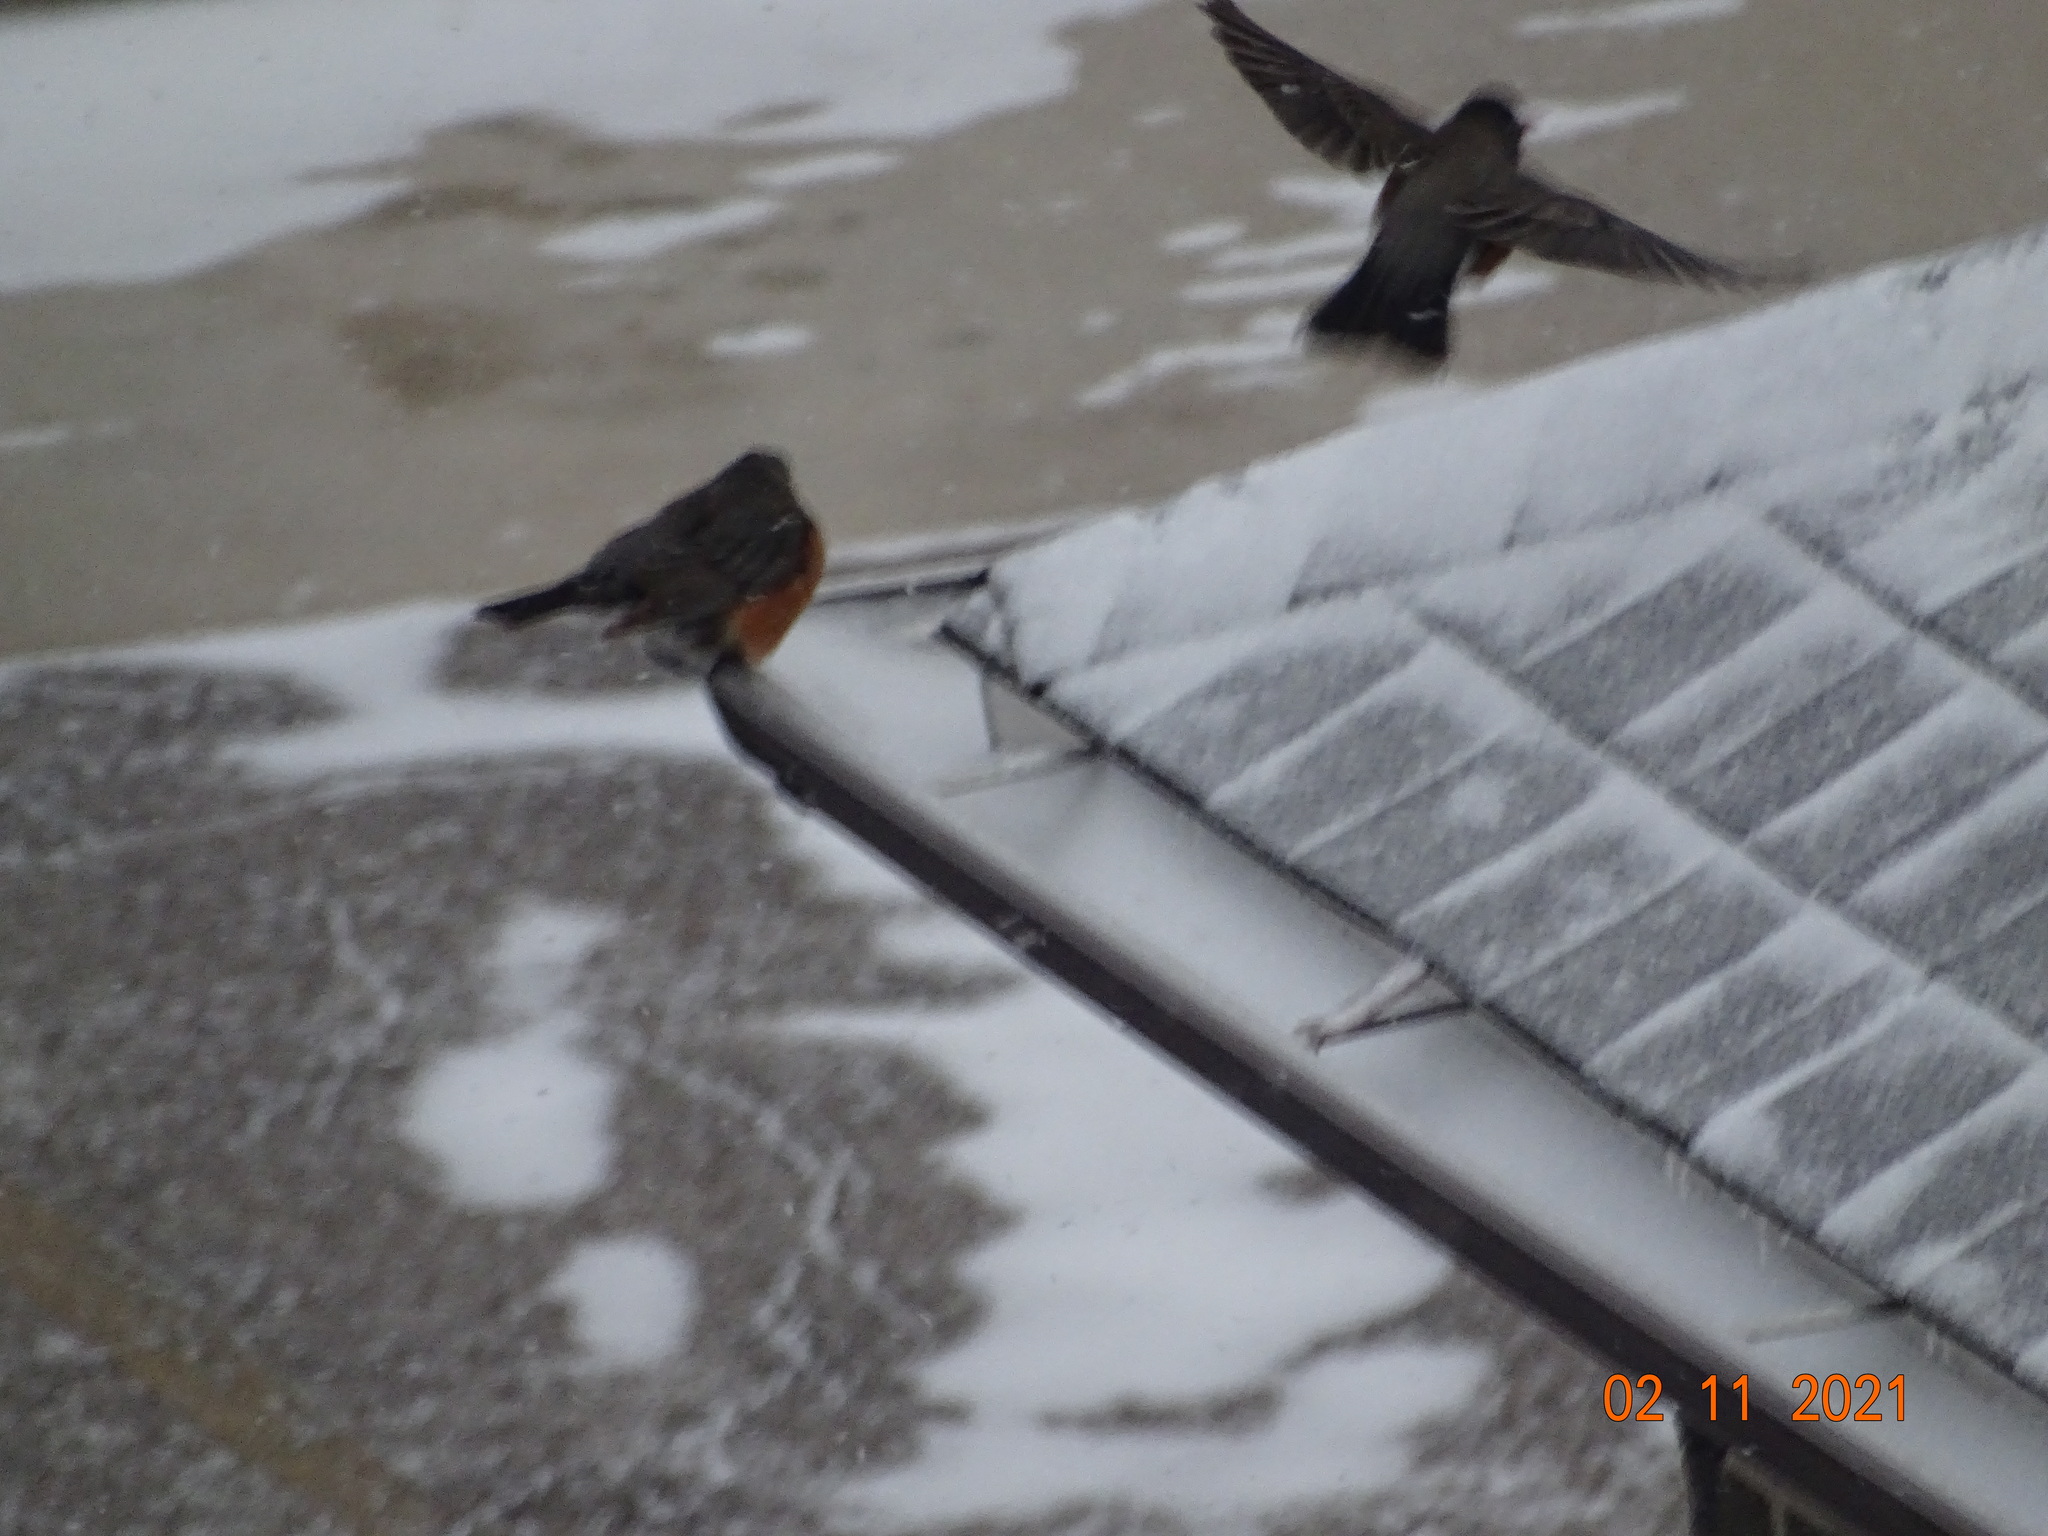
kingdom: Animalia
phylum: Chordata
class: Aves
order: Passeriformes
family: Turdidae
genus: Turdus
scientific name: Turdus migratorius
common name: American robin
